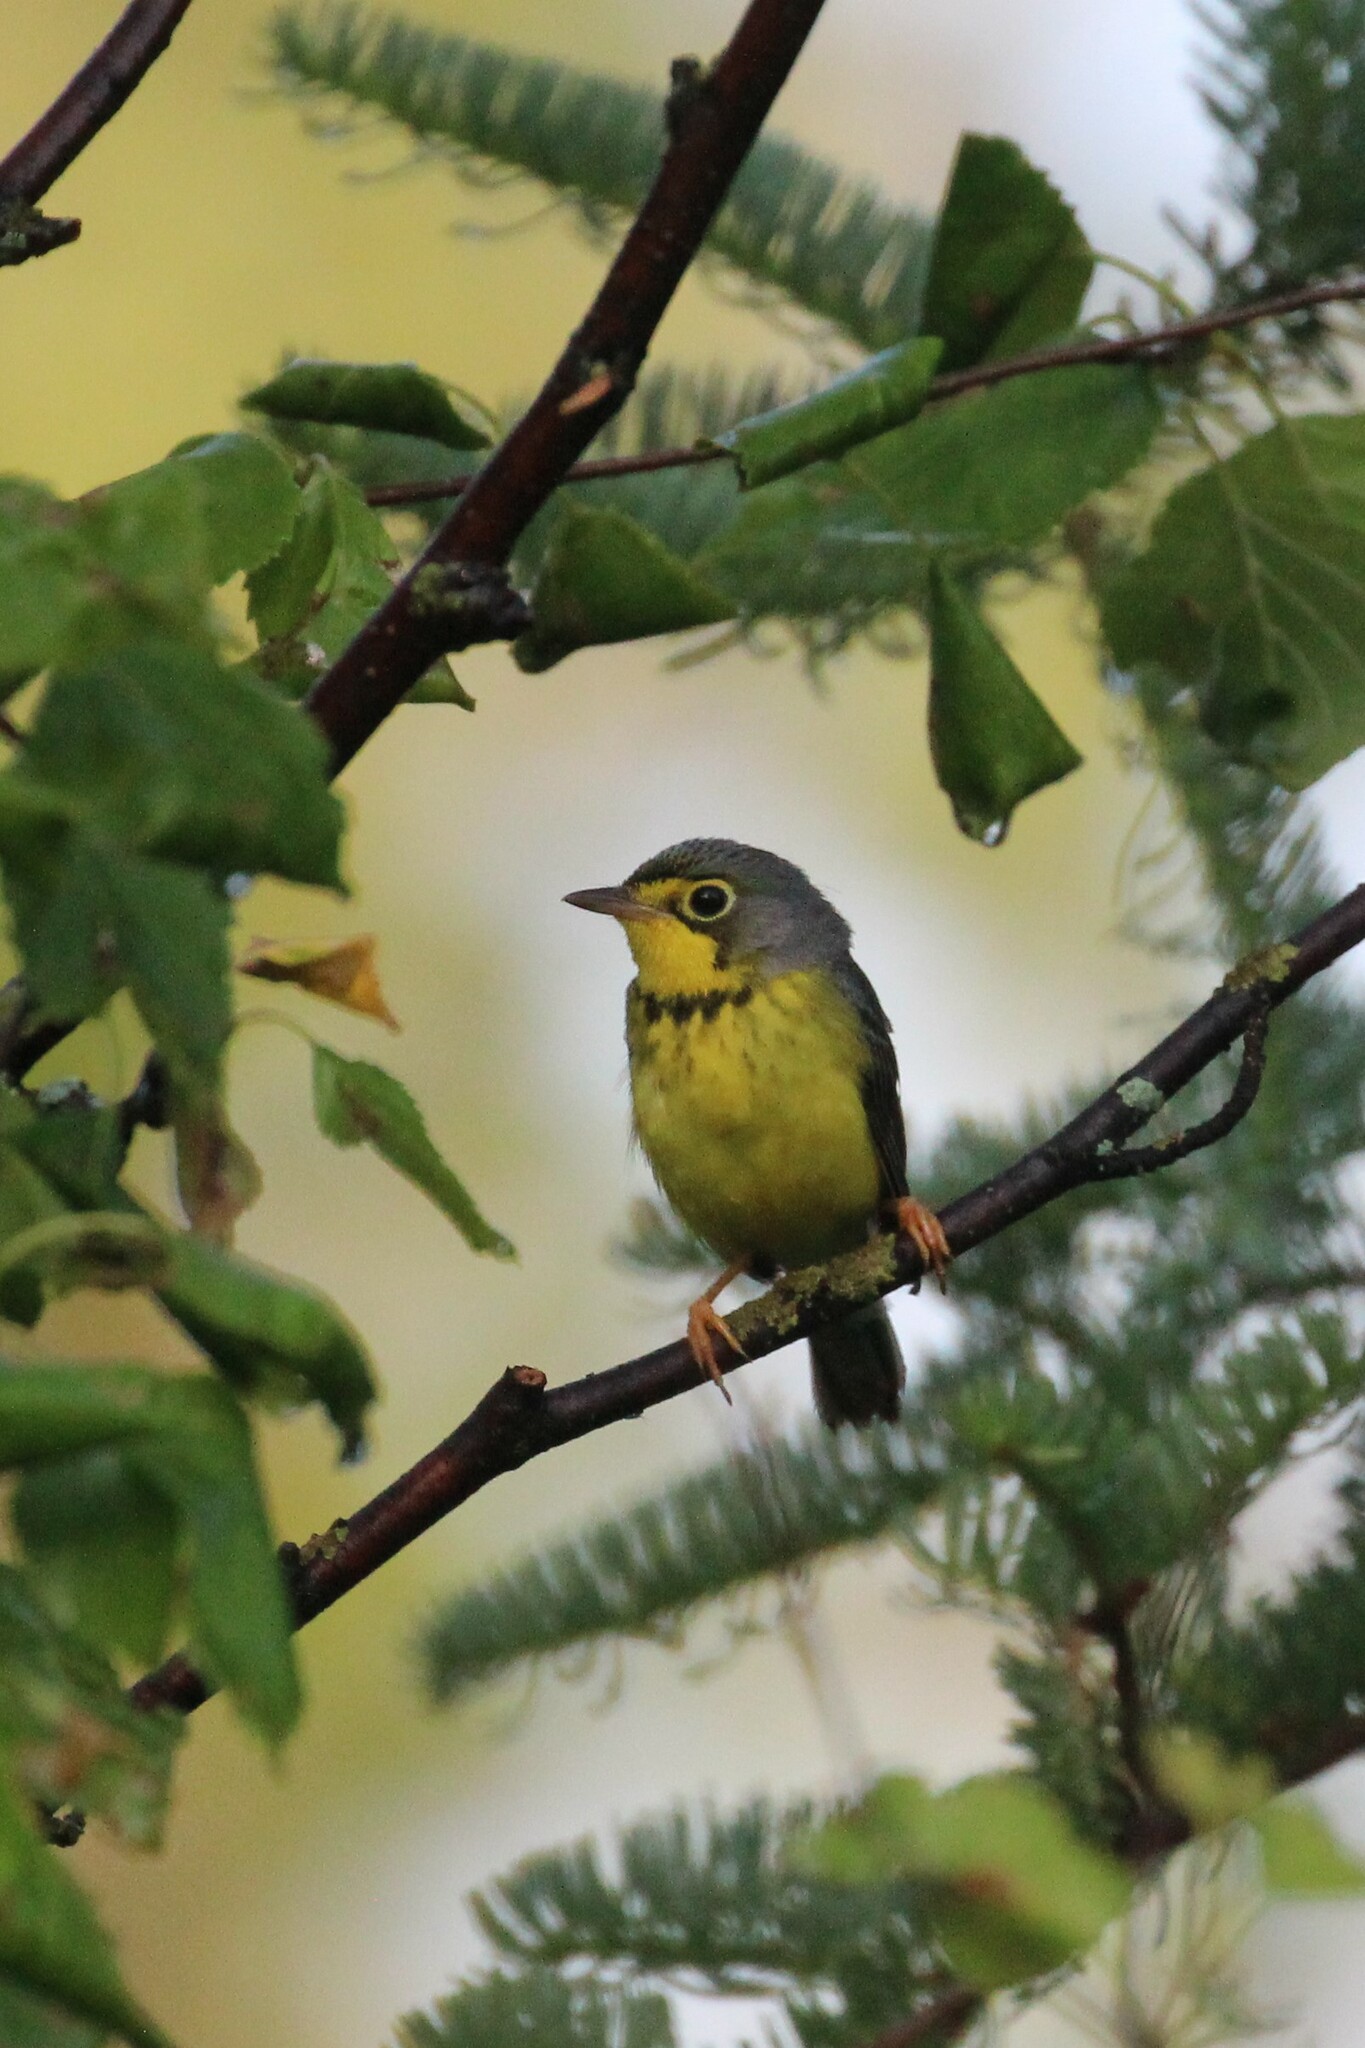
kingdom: Animalia
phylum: Chordata
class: Aves
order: Passeriformes
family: Parulidae
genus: Cardellina
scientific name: Cardellina canadensis
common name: Canada warbler
